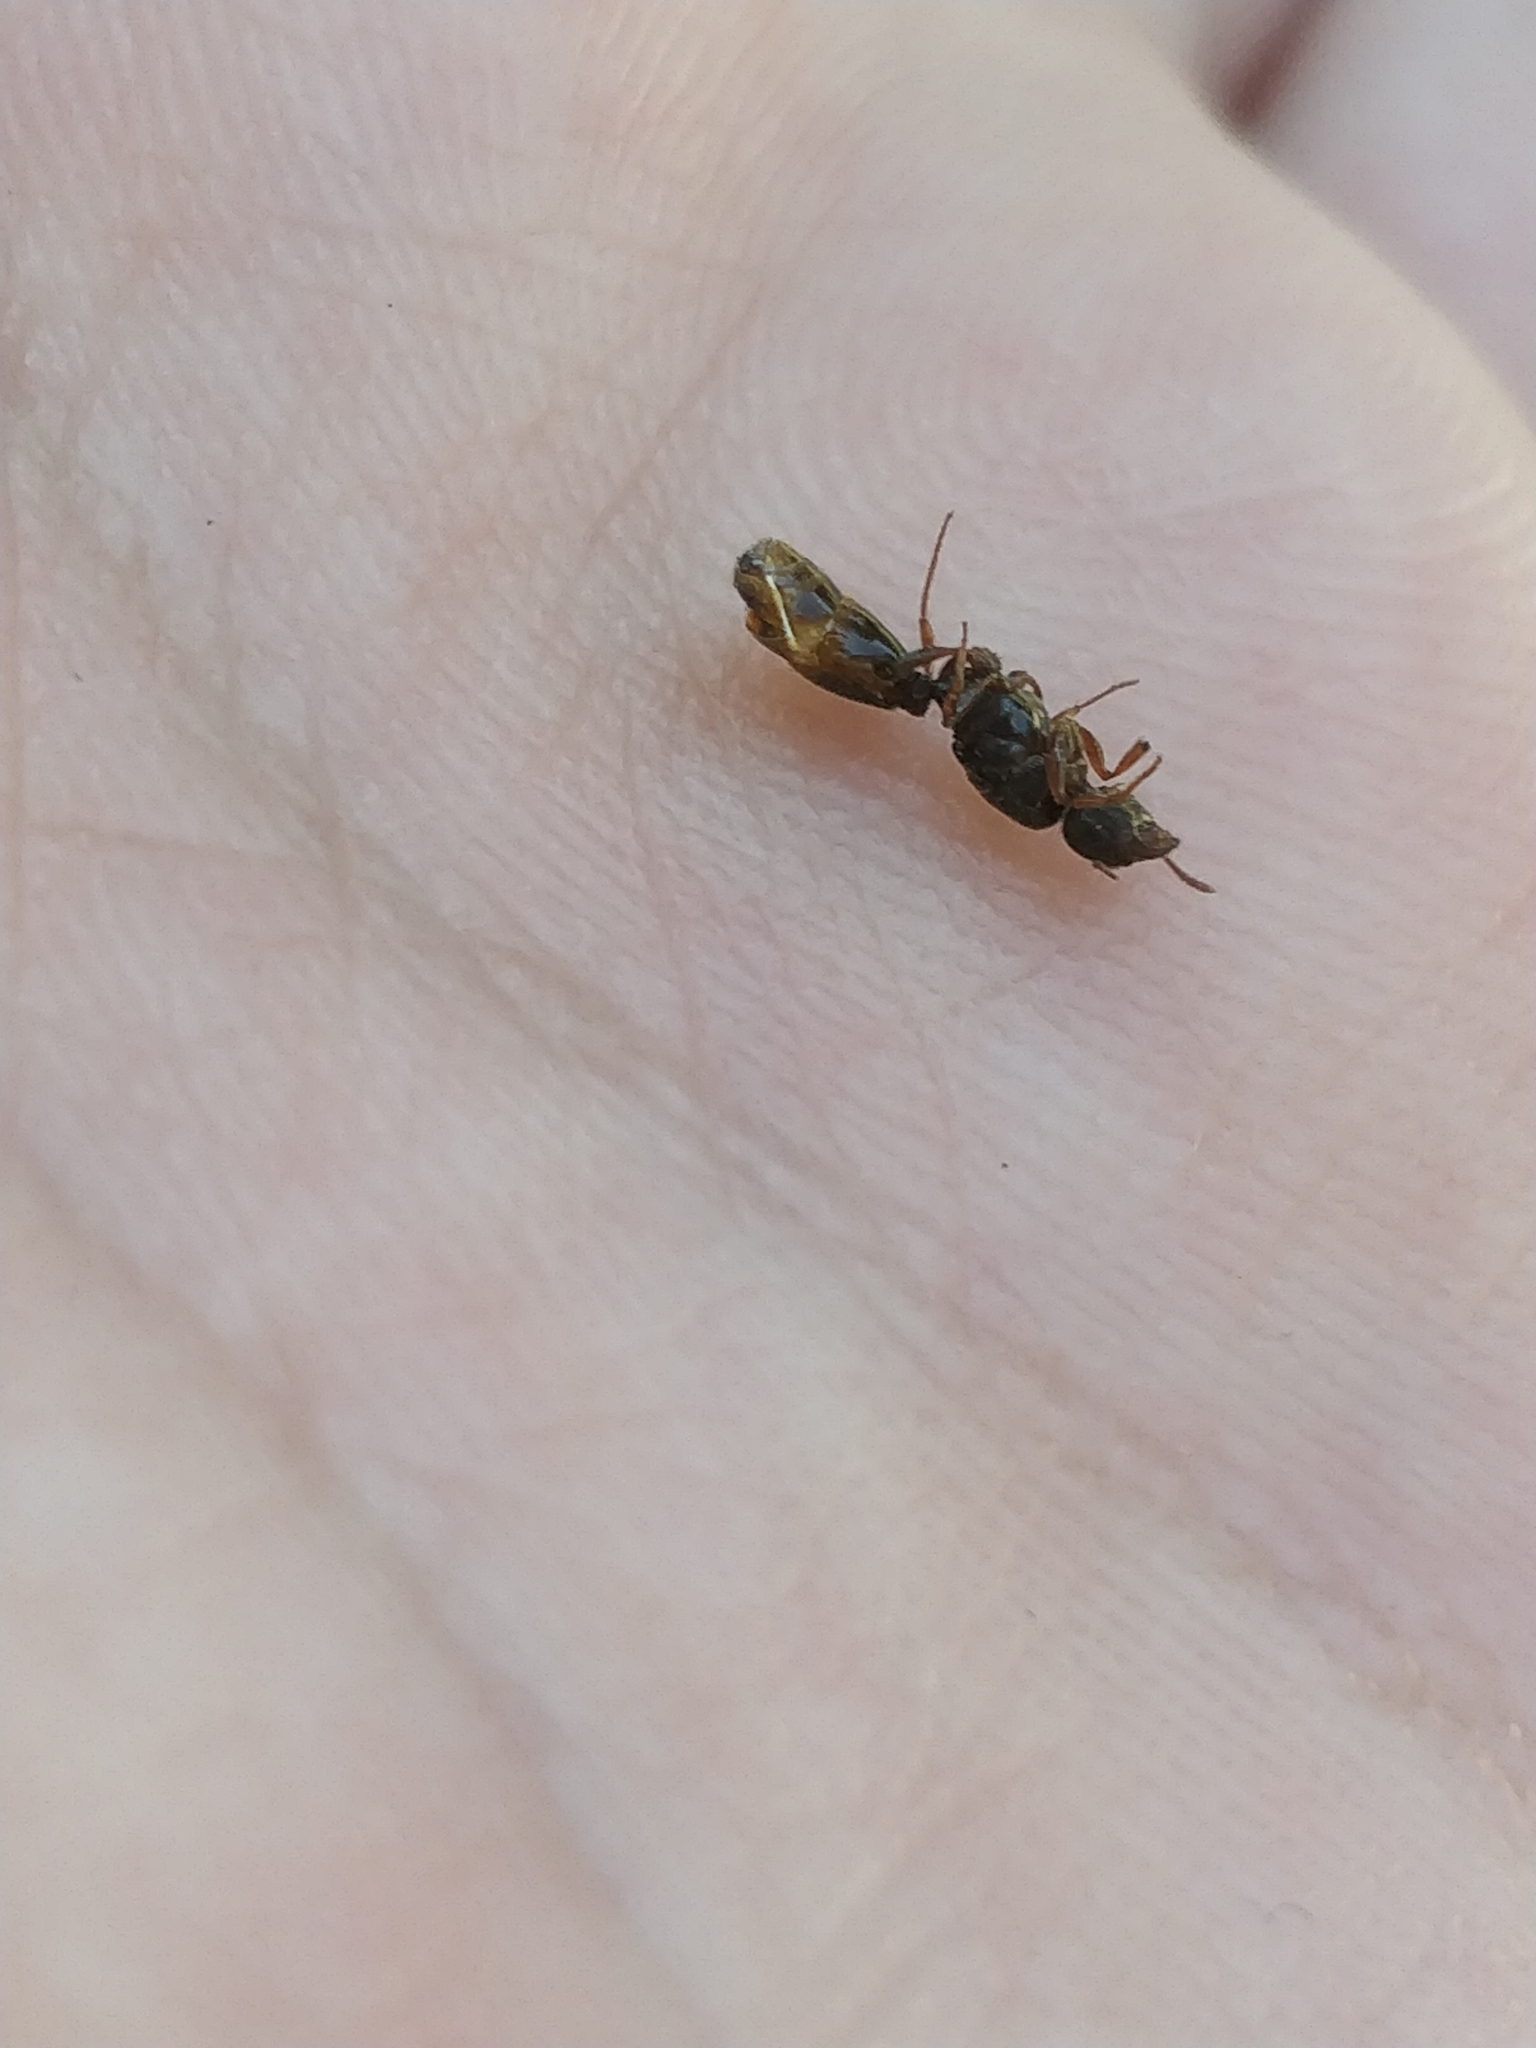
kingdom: Animalia
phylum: Arthropoda
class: Insecta
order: Hymenoptera
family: Formicidae
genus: Tetramorium
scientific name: Tetramorium immigrans
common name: Pavement ant
